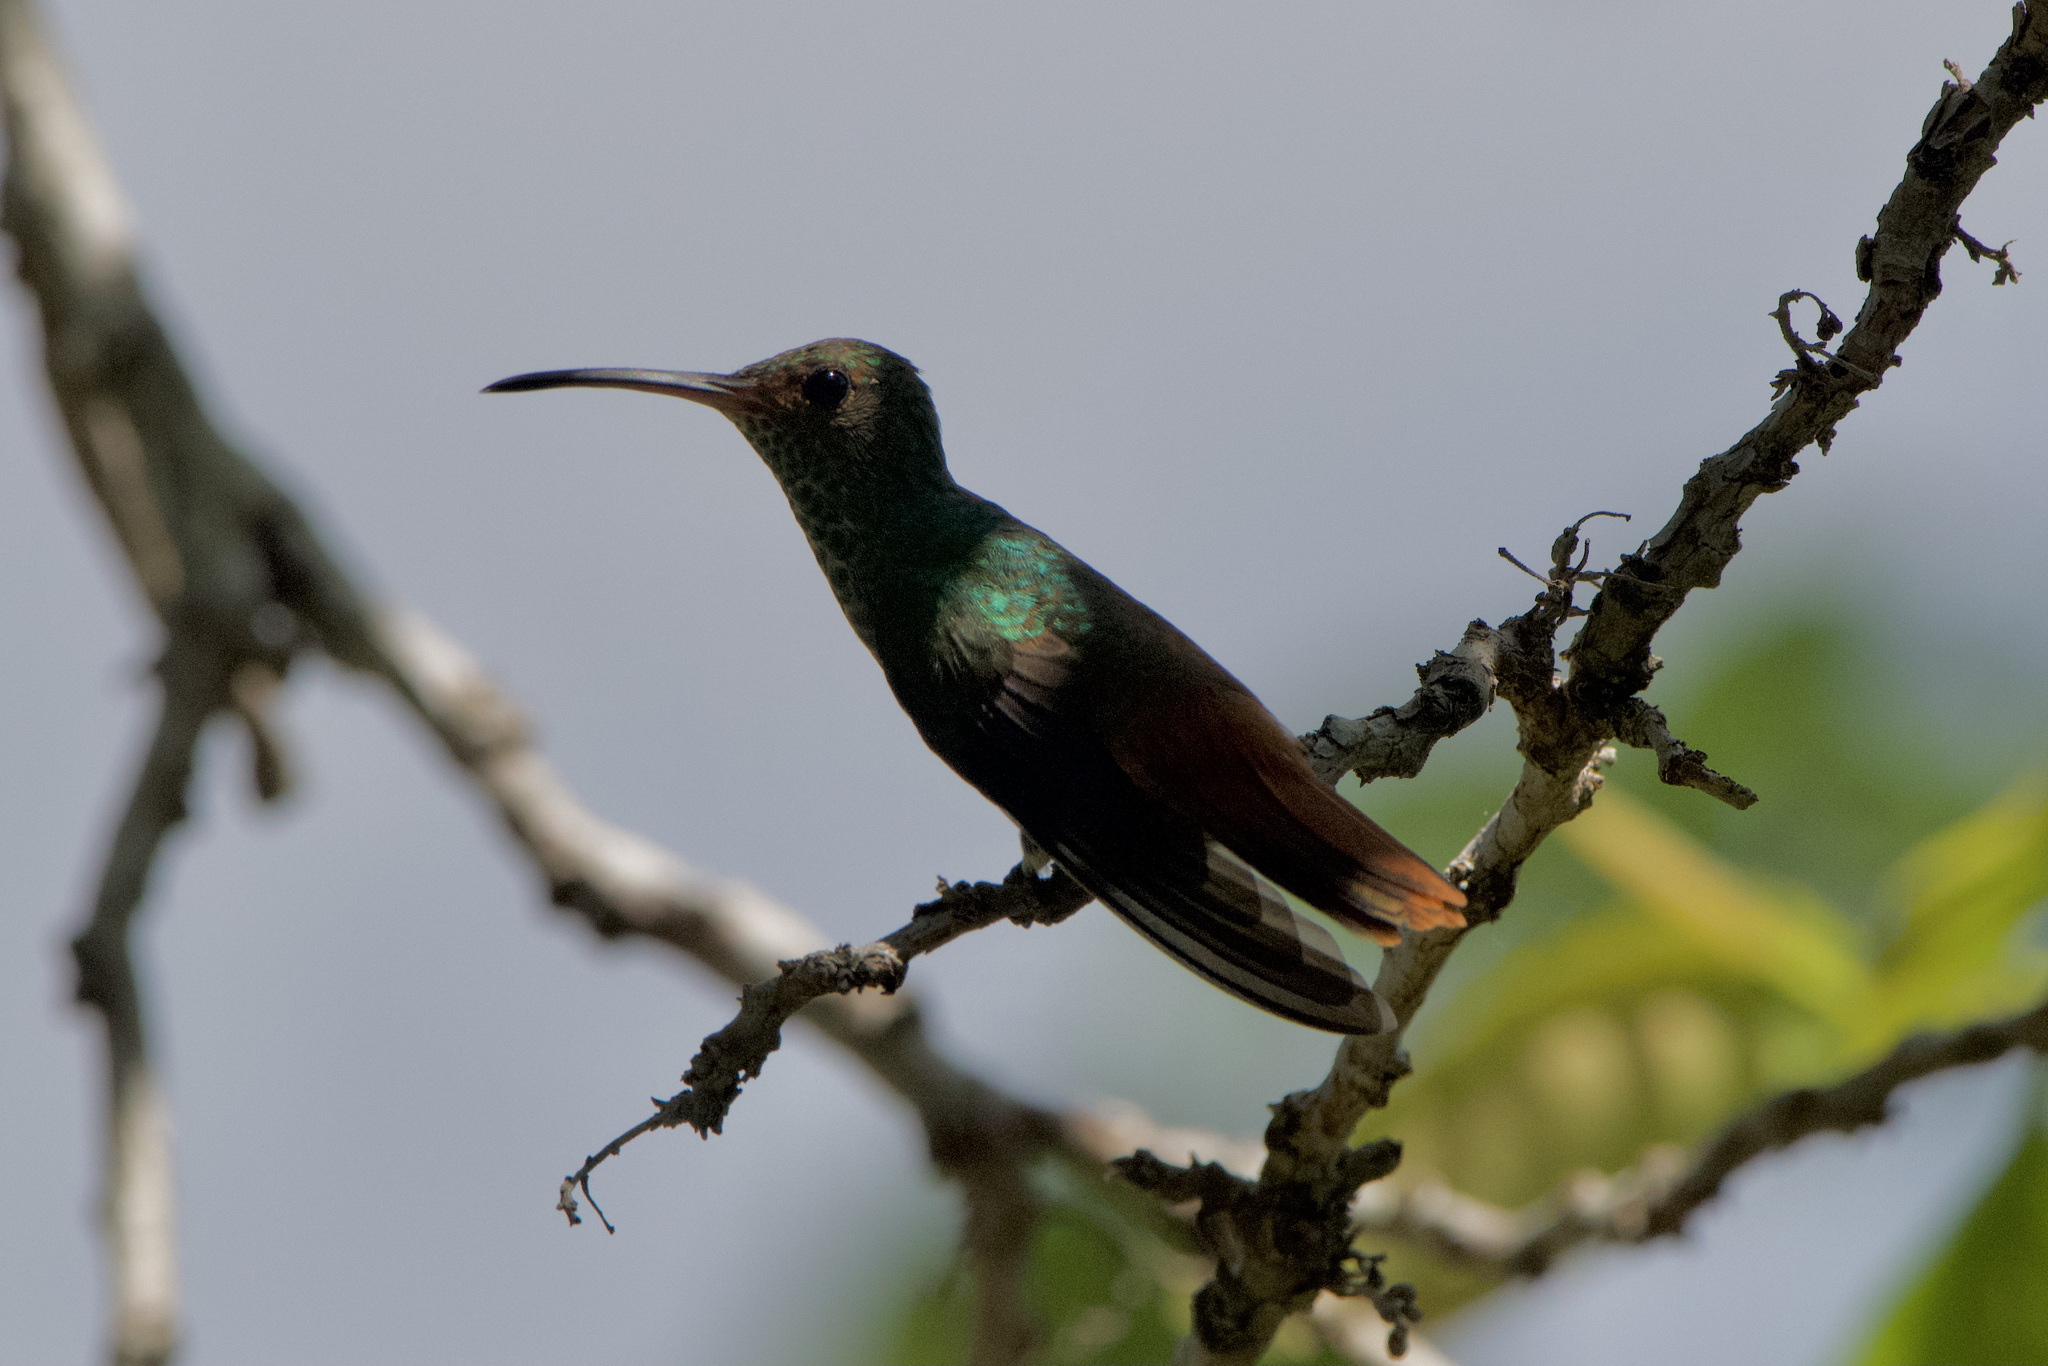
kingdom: Animalia
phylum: Chordata
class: Aves
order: Apodiformes
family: Trochilidae
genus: Amazilia
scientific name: Amazilia tzacatl
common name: Rufous-tailed hummingbird
